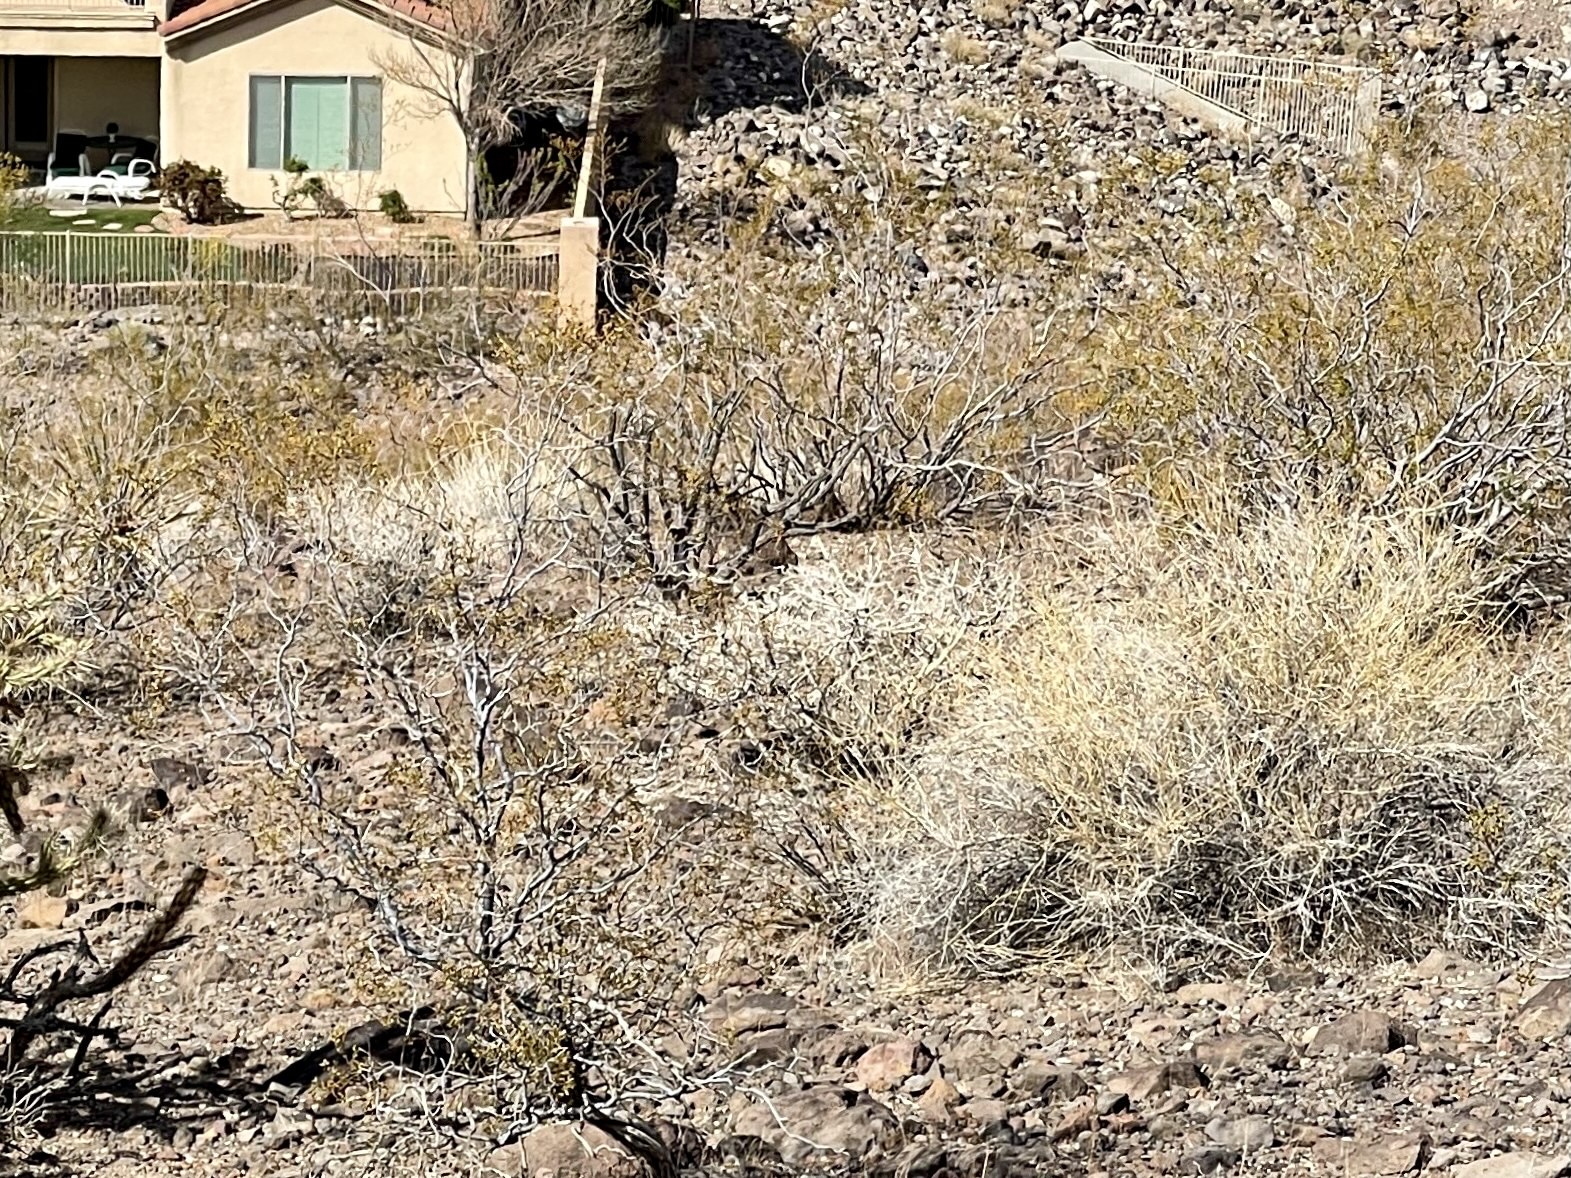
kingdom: Plantae
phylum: Tracheophyta
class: Magnoliopsida
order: Zygophyllales
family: Zygophyllaceae
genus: Larrea
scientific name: Larrea tridentata
